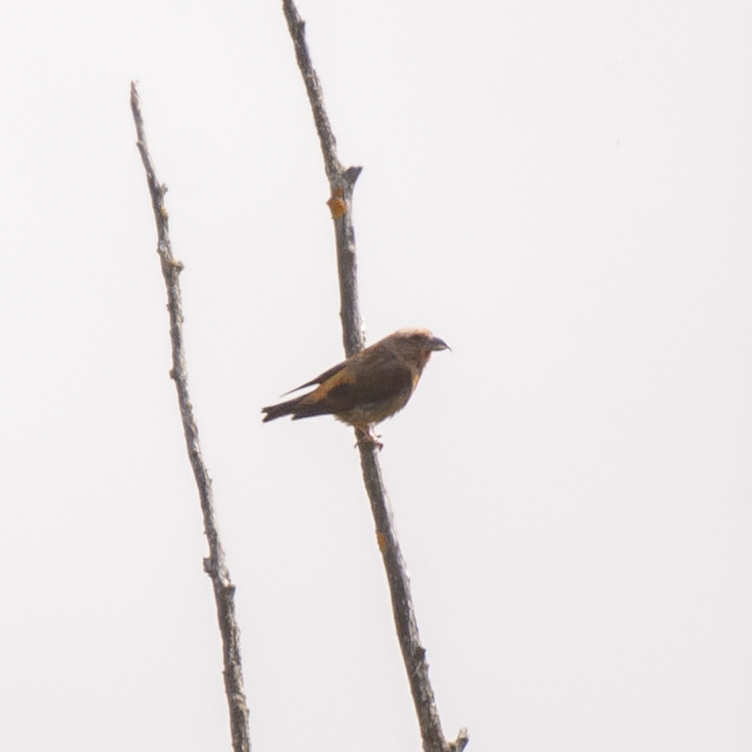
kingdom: Animalia
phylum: Chordata
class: Aves
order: Passeriformes
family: Fringillidae
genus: Loxia
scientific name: Loxia curvirostra
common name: Red crossbill
